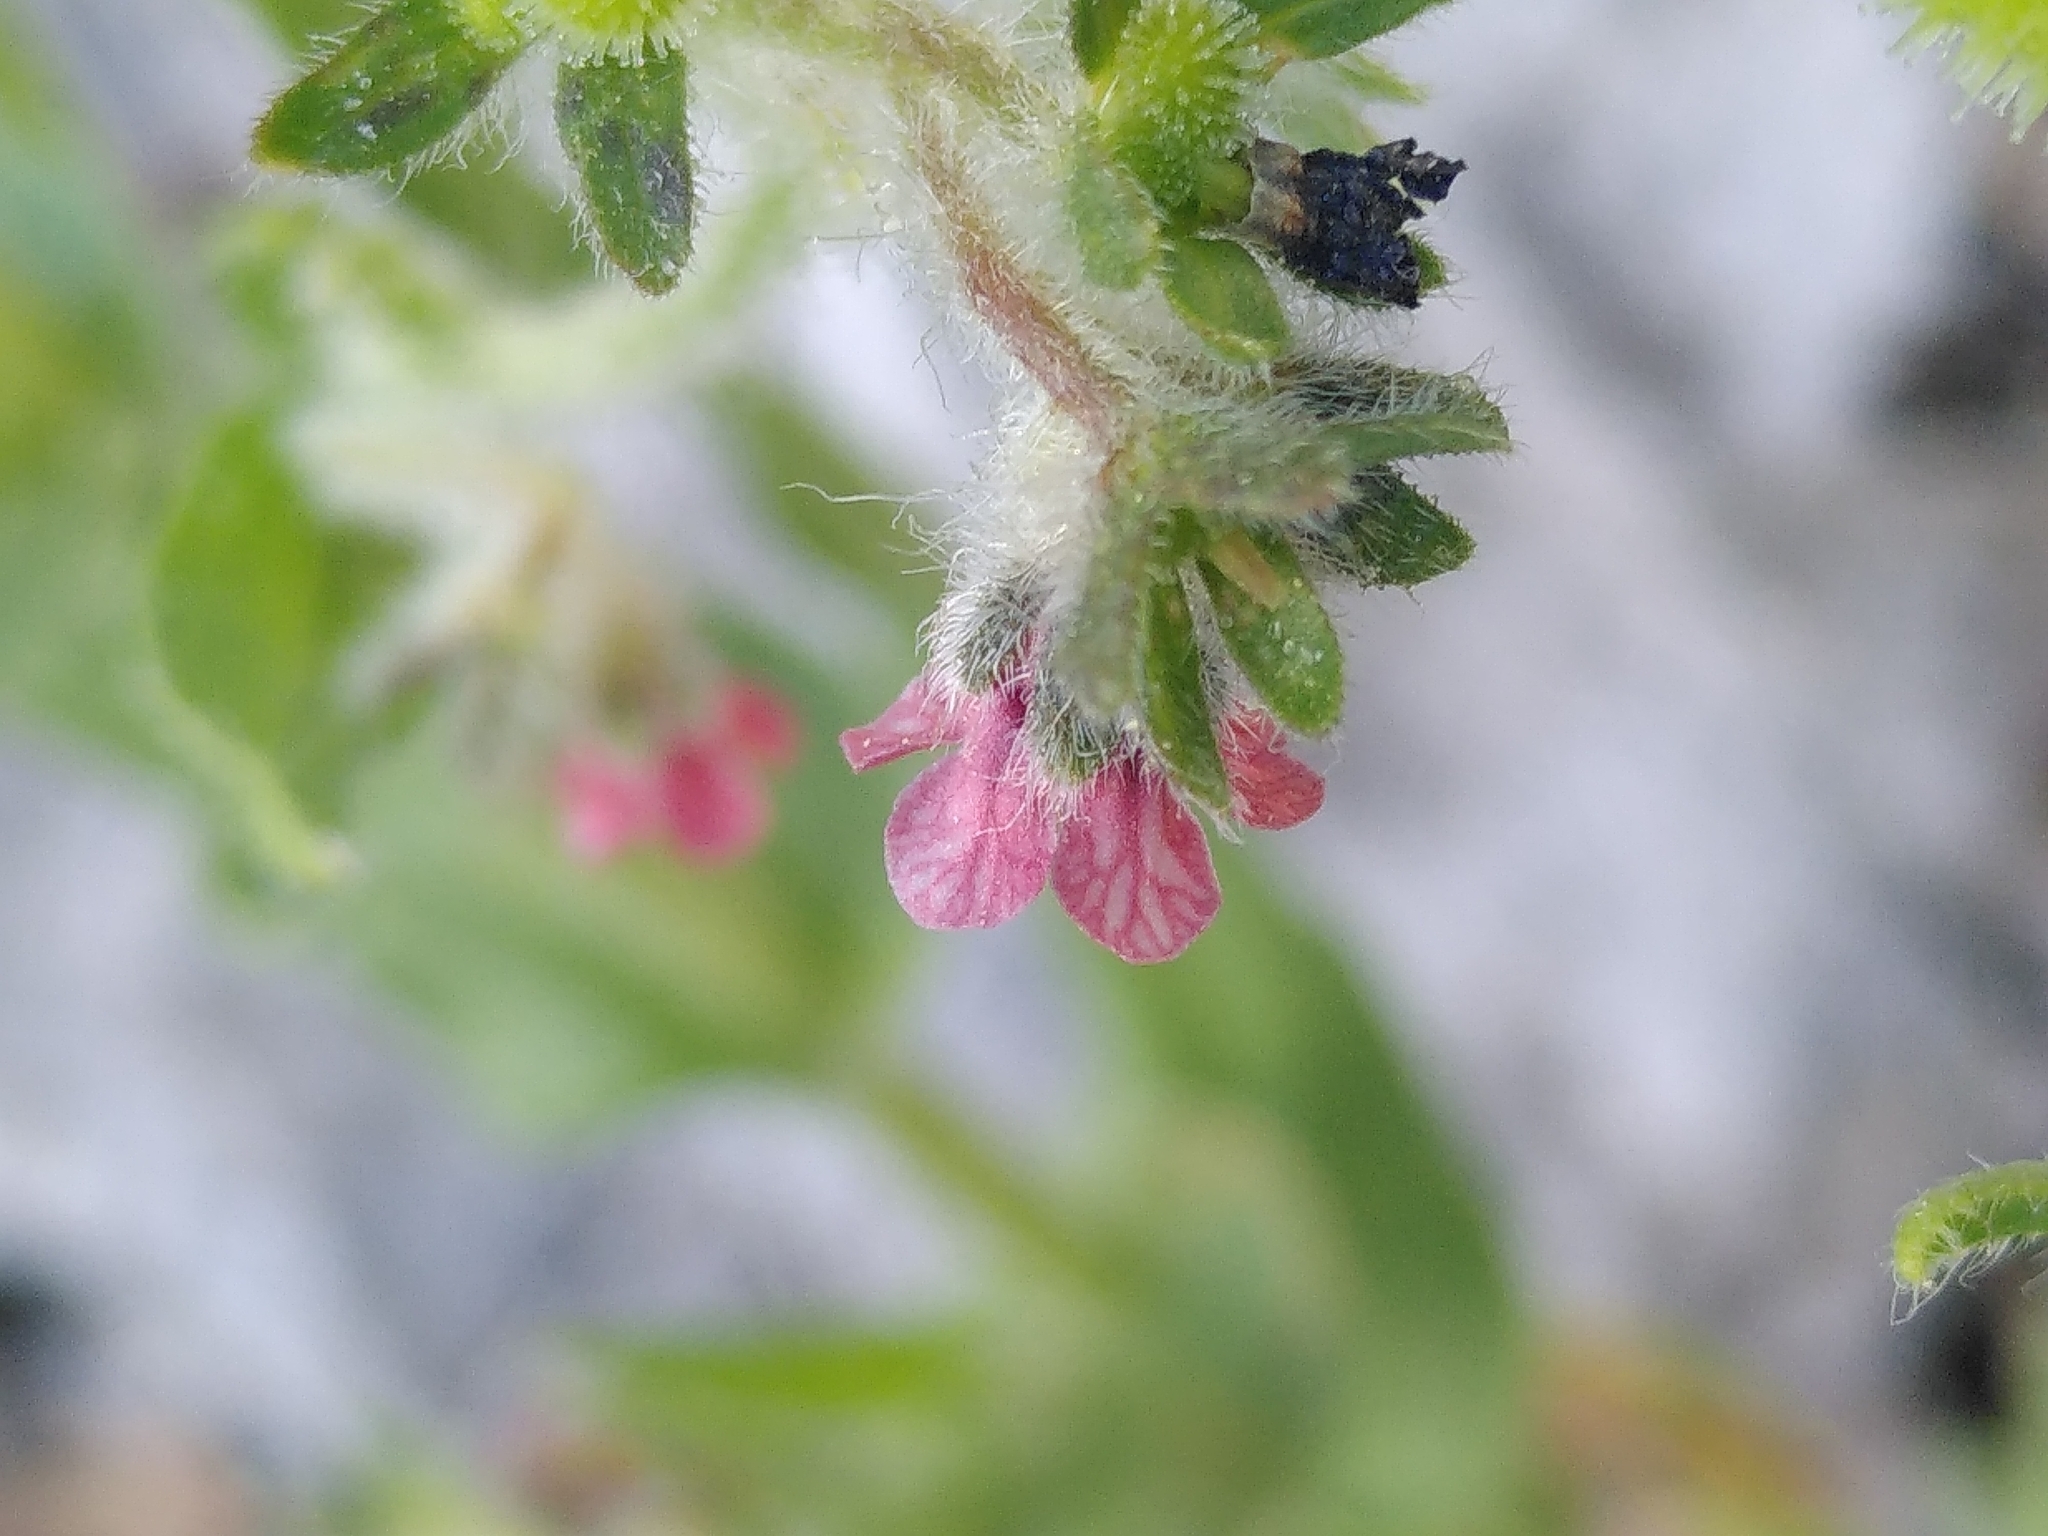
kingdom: Plantae
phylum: Tracheophyta
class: Magnoliopsida
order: Boraginales
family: Boraginaceae
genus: Cynoglossum
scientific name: Cynoglossum pustulatum
